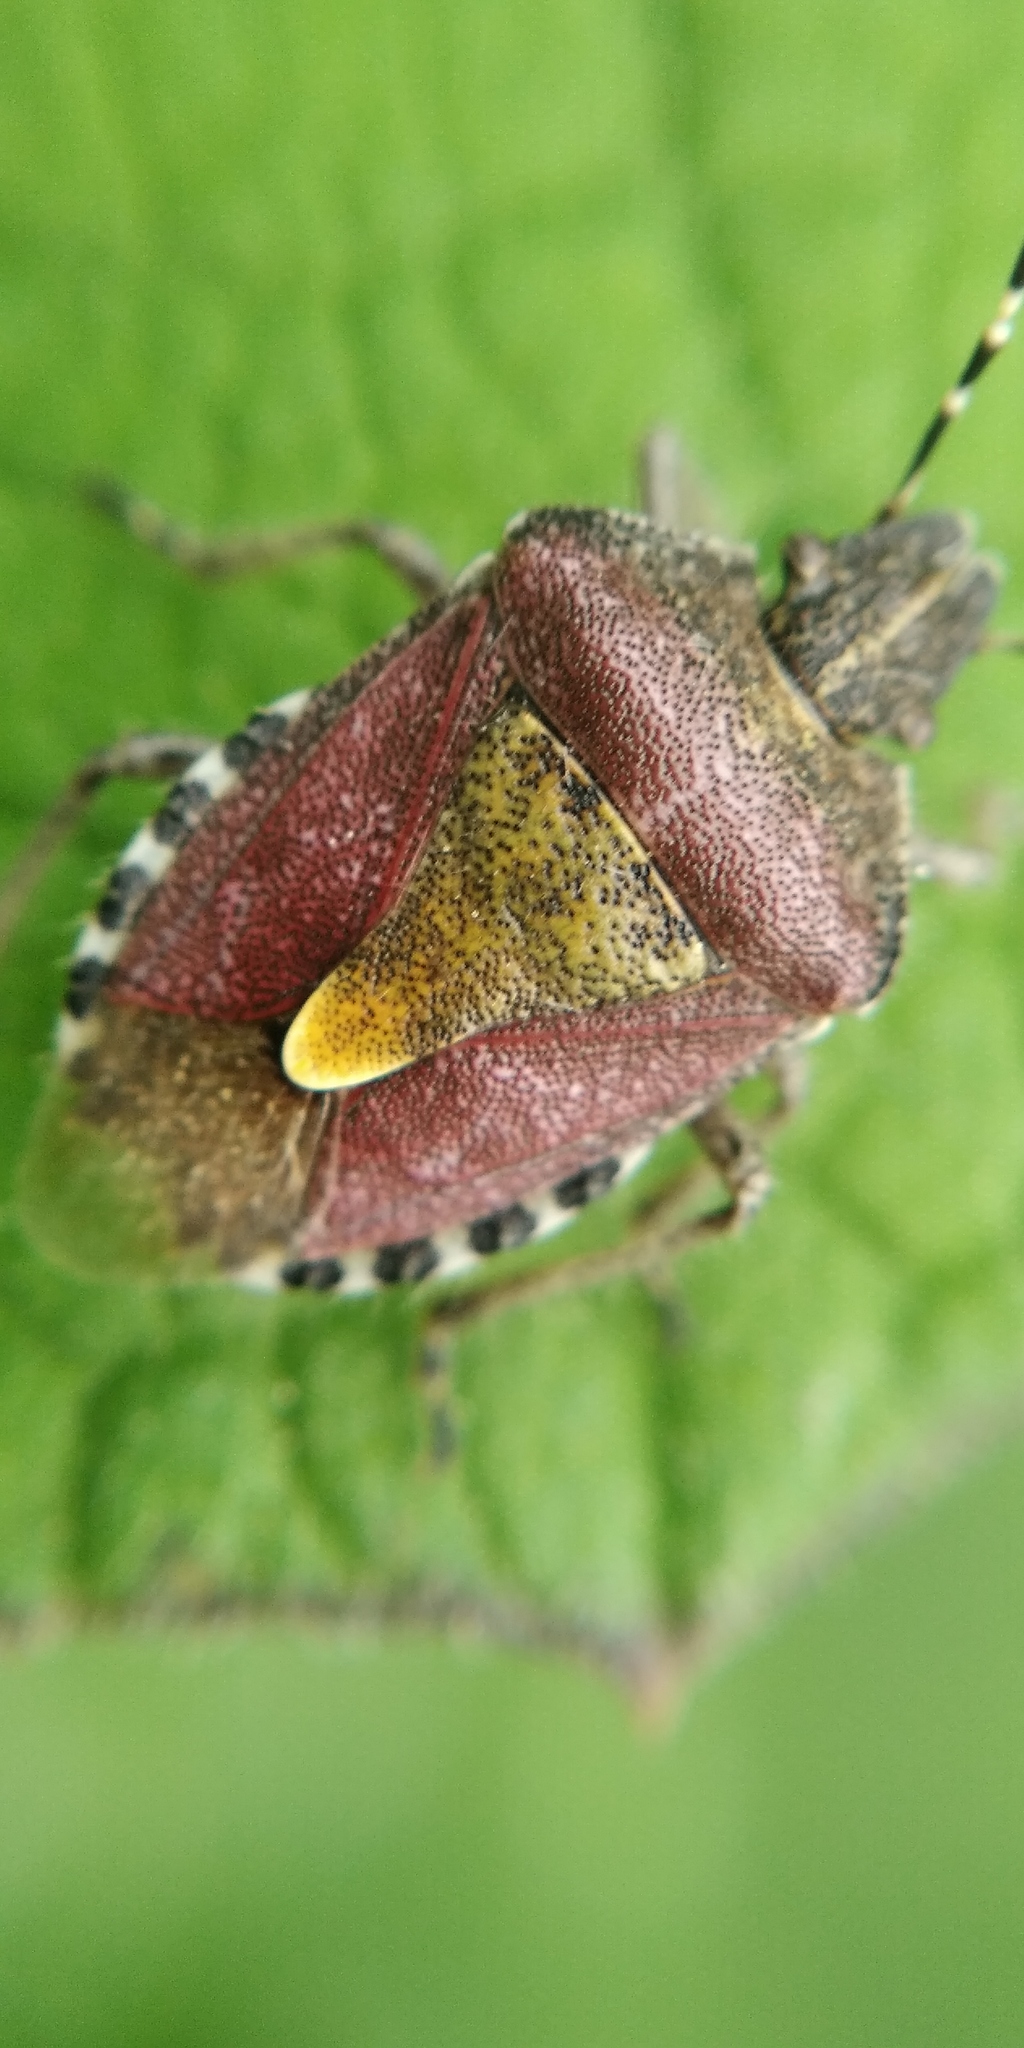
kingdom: Animalia
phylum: Arthropoda
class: Insecta
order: Hemiptera
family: Pentatomidae
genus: Dolycoris
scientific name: Dolycoris baccarum
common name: Sloe bug
